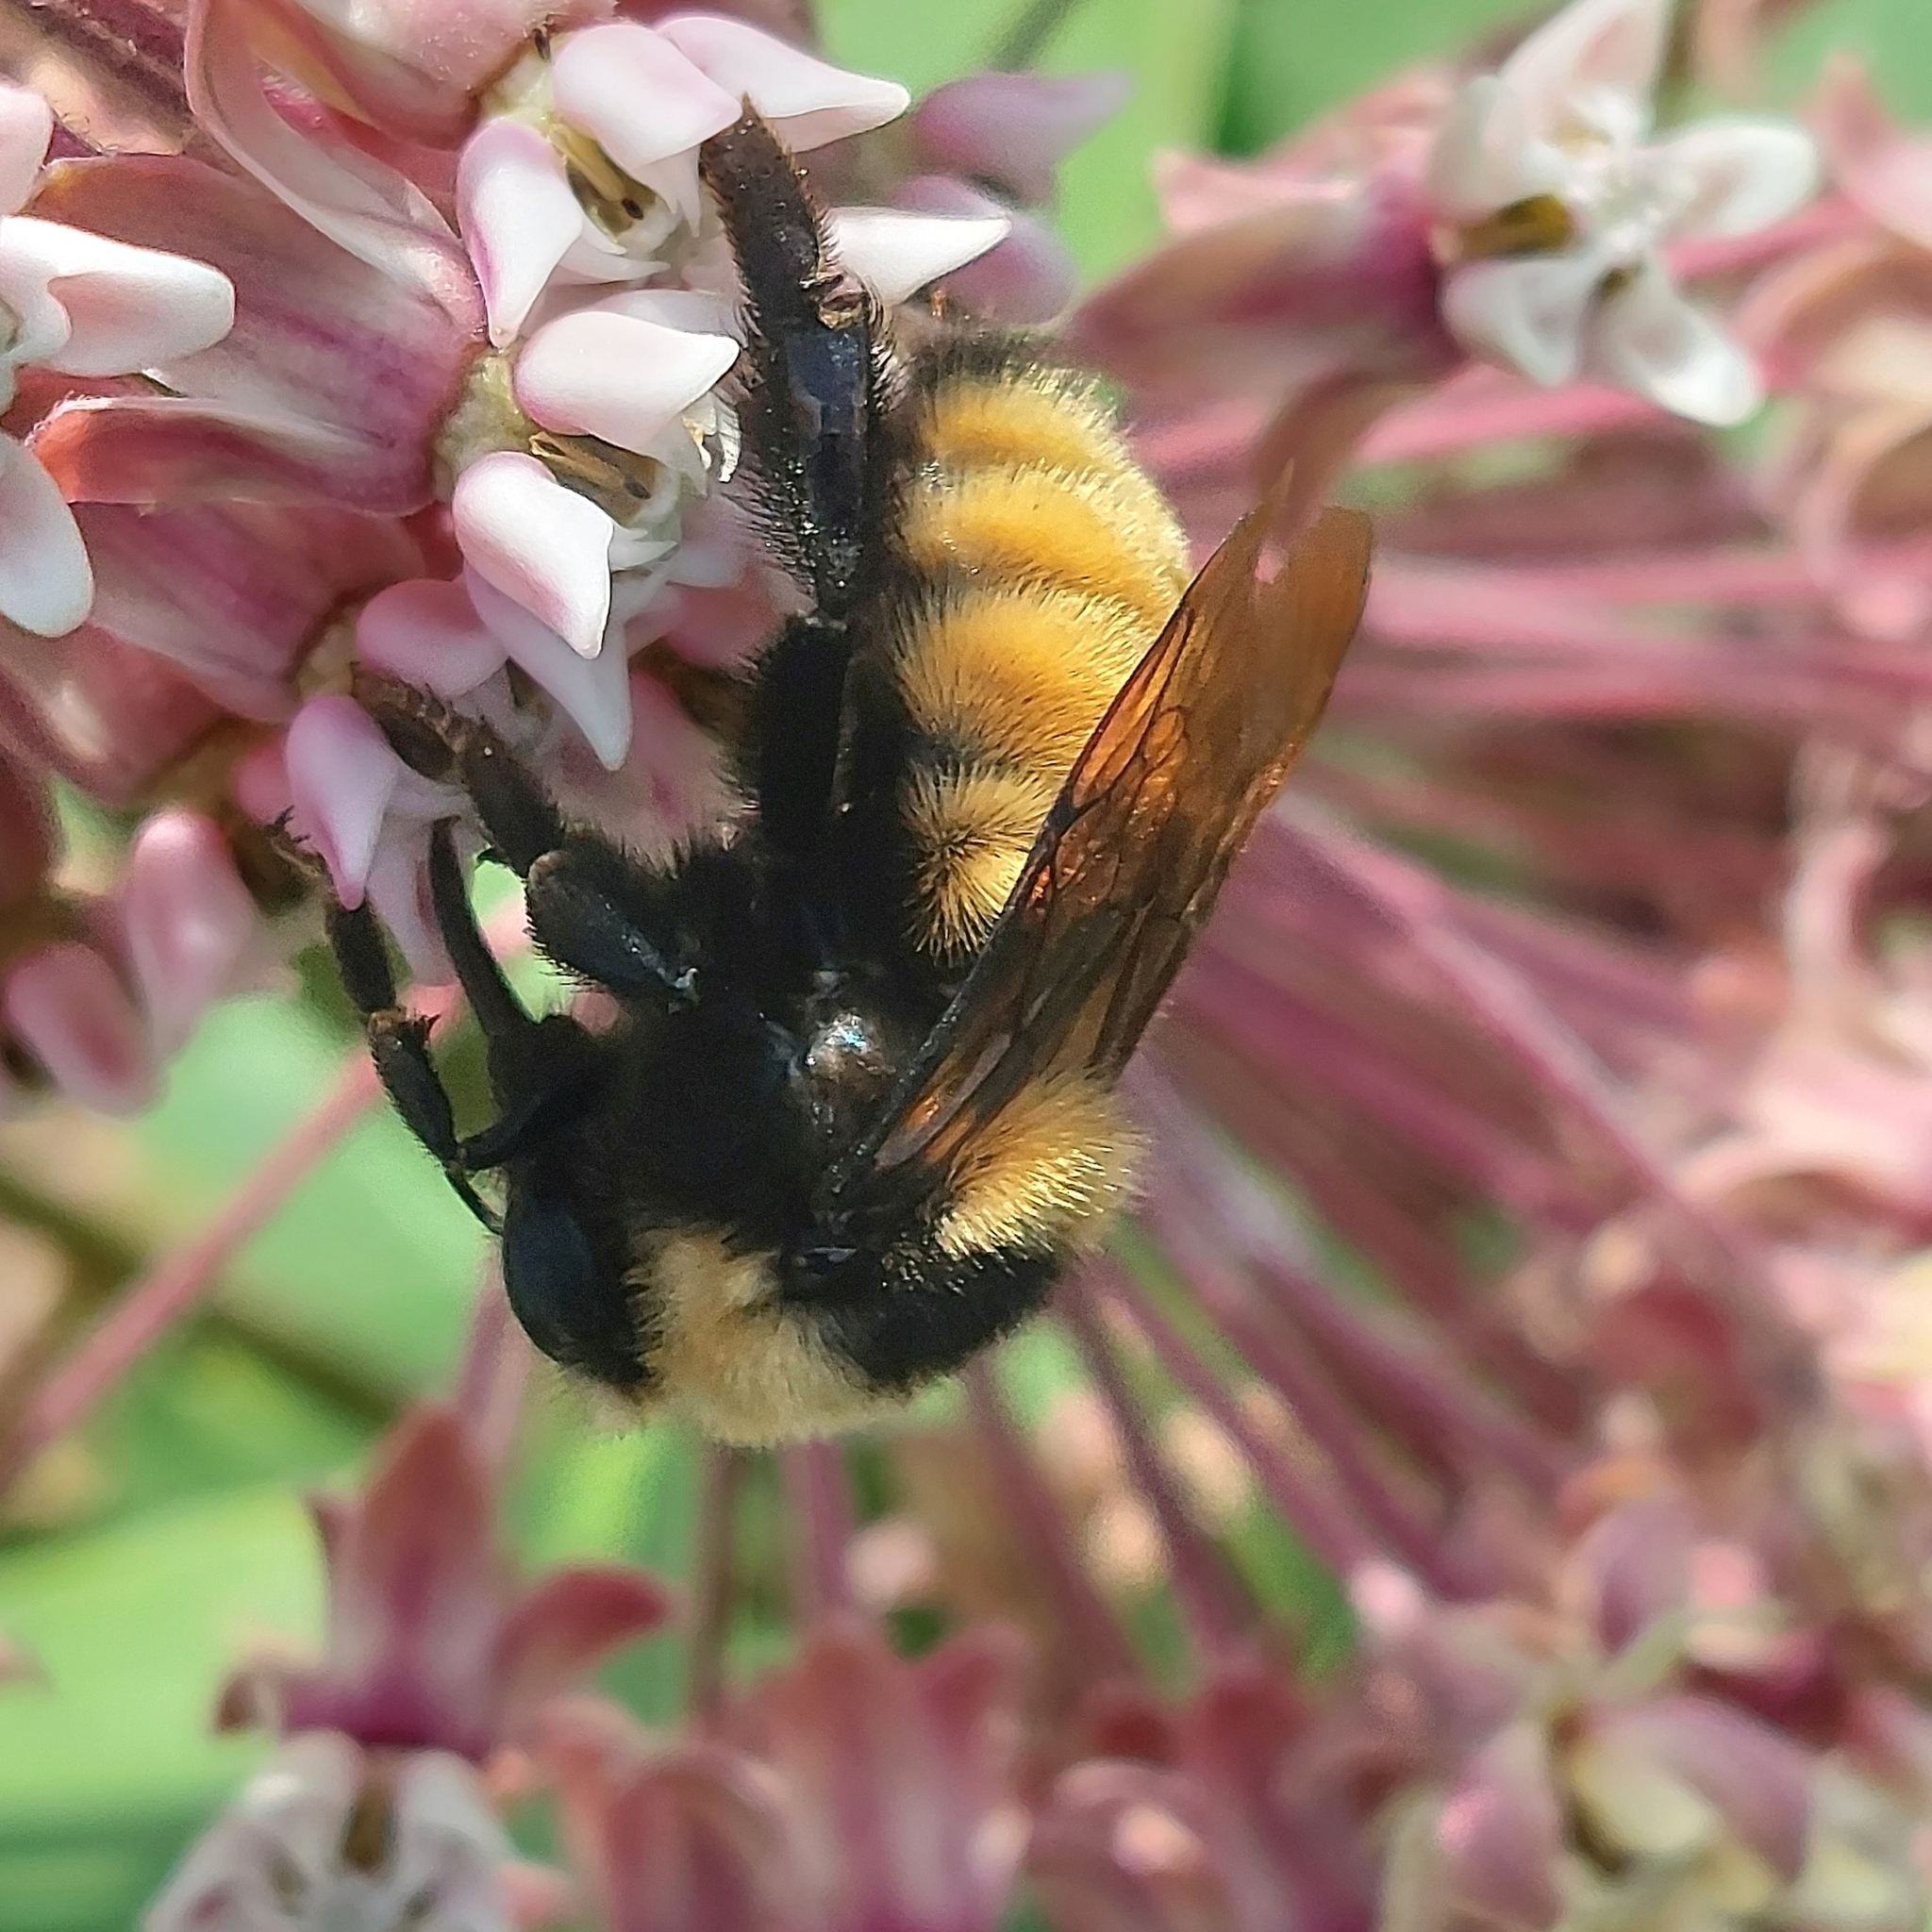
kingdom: Animalia
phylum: Arthropoda
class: Insecta
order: Hymenoptera
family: Apidae
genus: Bombus
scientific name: Bombus borealis
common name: Northern amber bumble bee
